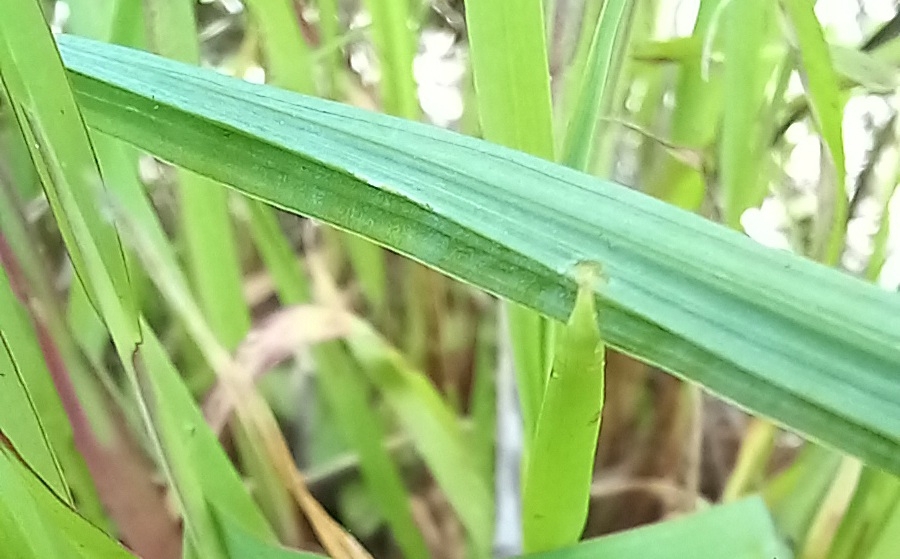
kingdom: Plantae
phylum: Tracheophyta
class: Liliopsida
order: Asparagales
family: Iridaceae
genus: Afrosolen
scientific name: Afrosolen erythranthus
